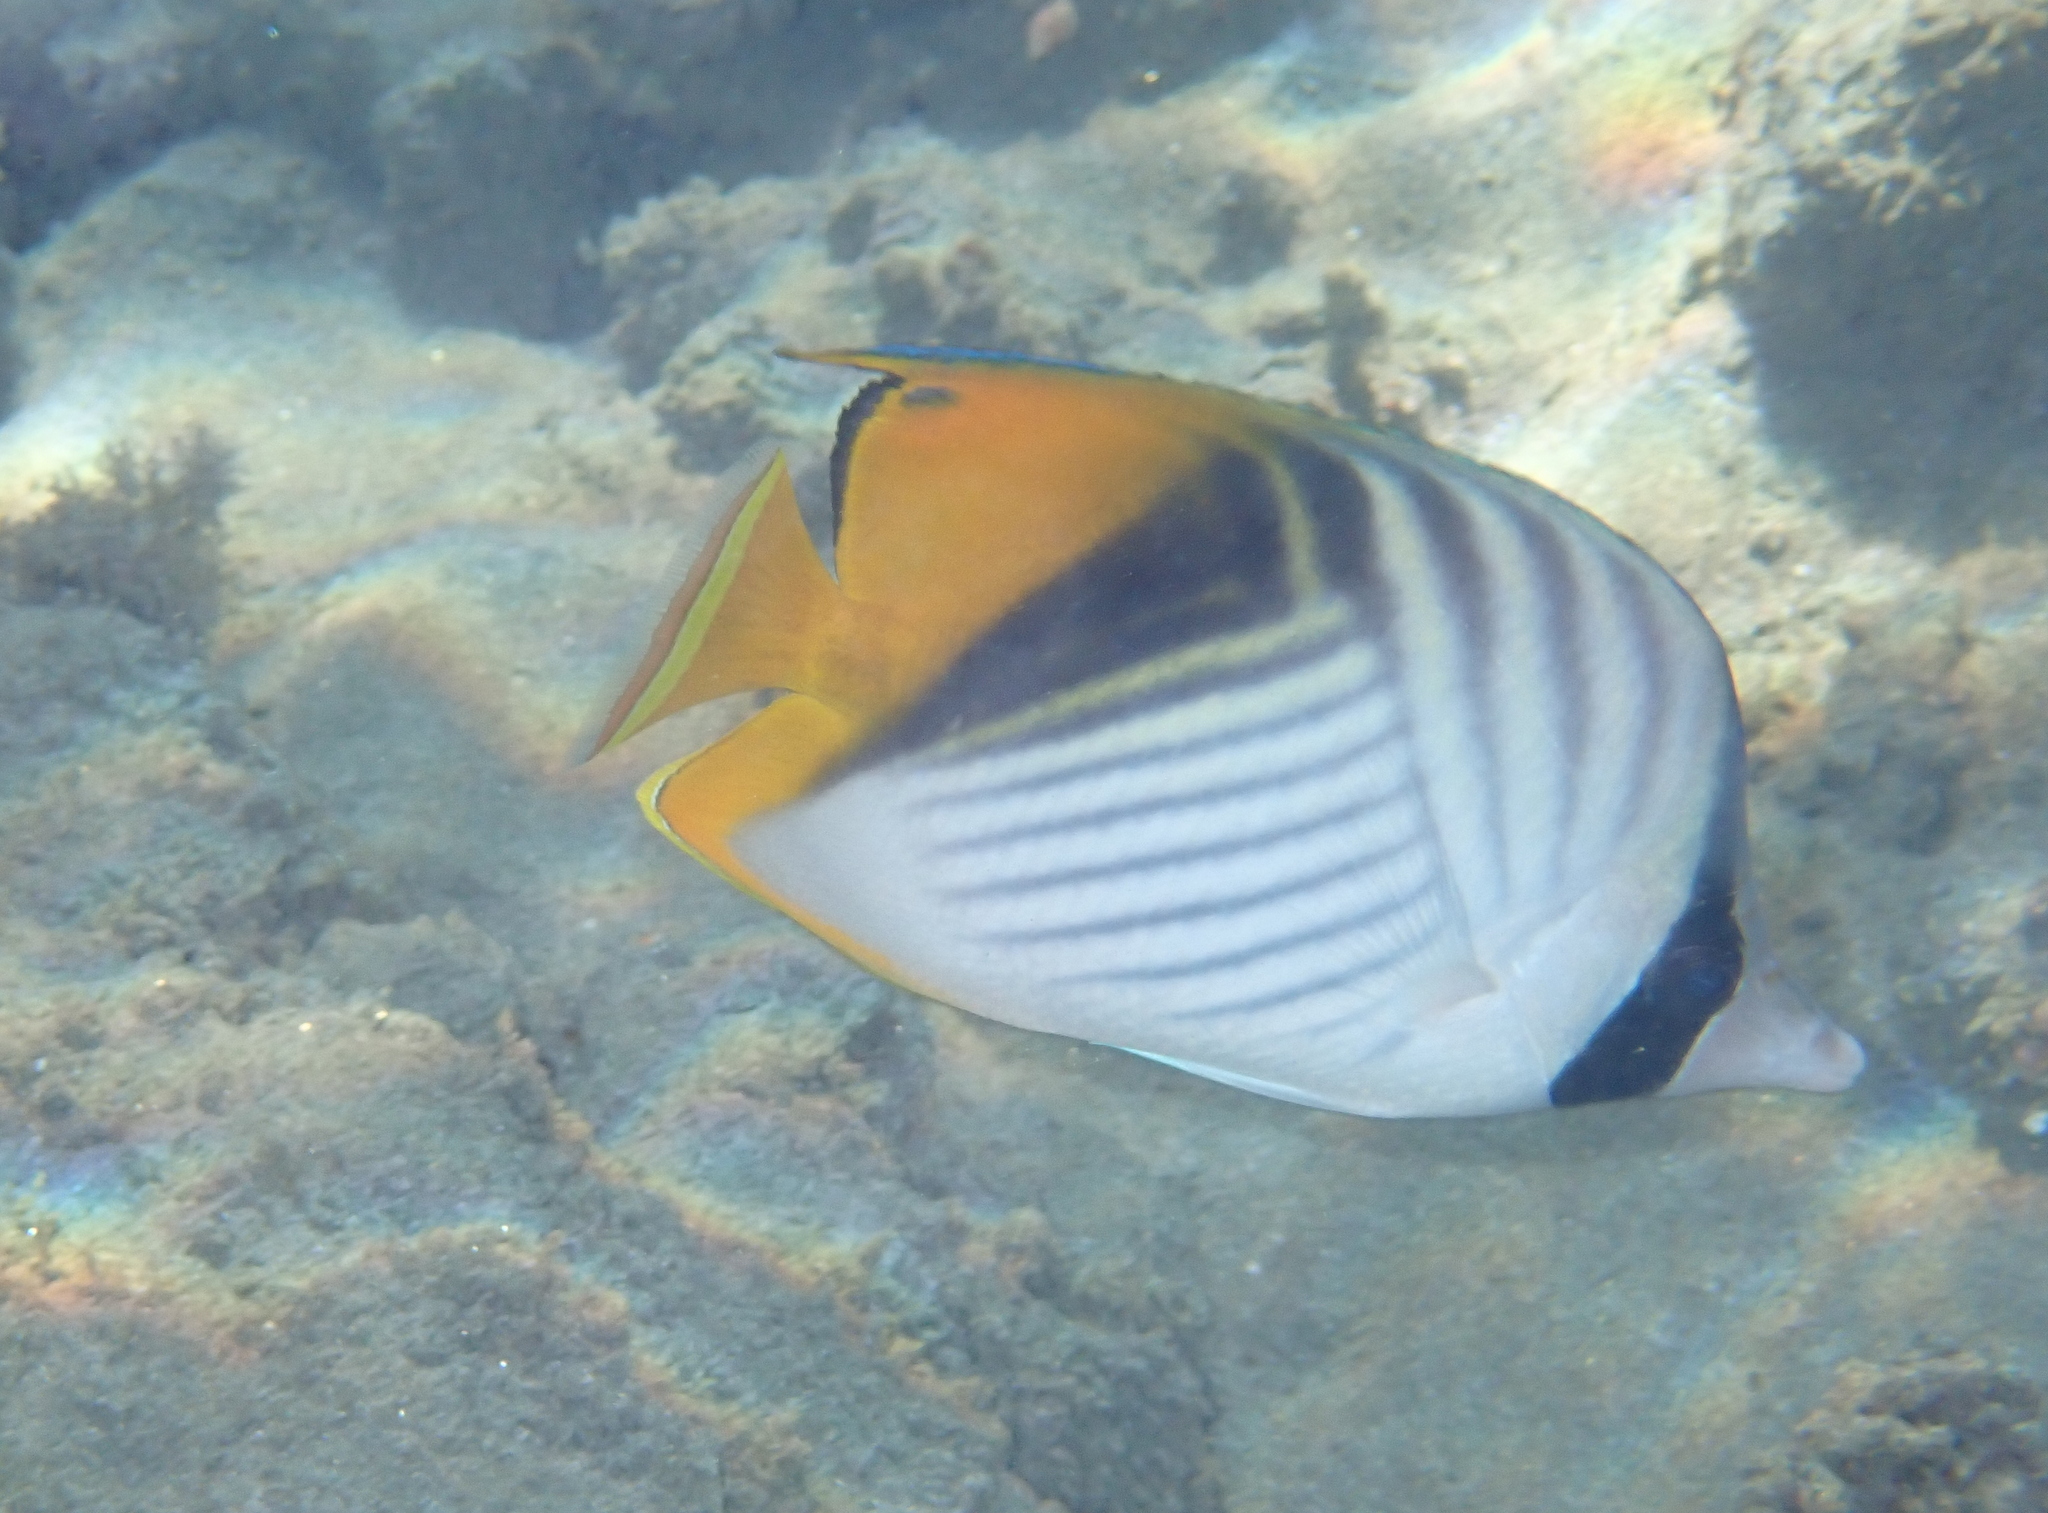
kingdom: Animalia
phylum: Chordata
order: Perciformes
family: Chaetodontidae
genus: Chaetodon
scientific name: Chaetodon auriga
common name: Threadfin butterflyfish
